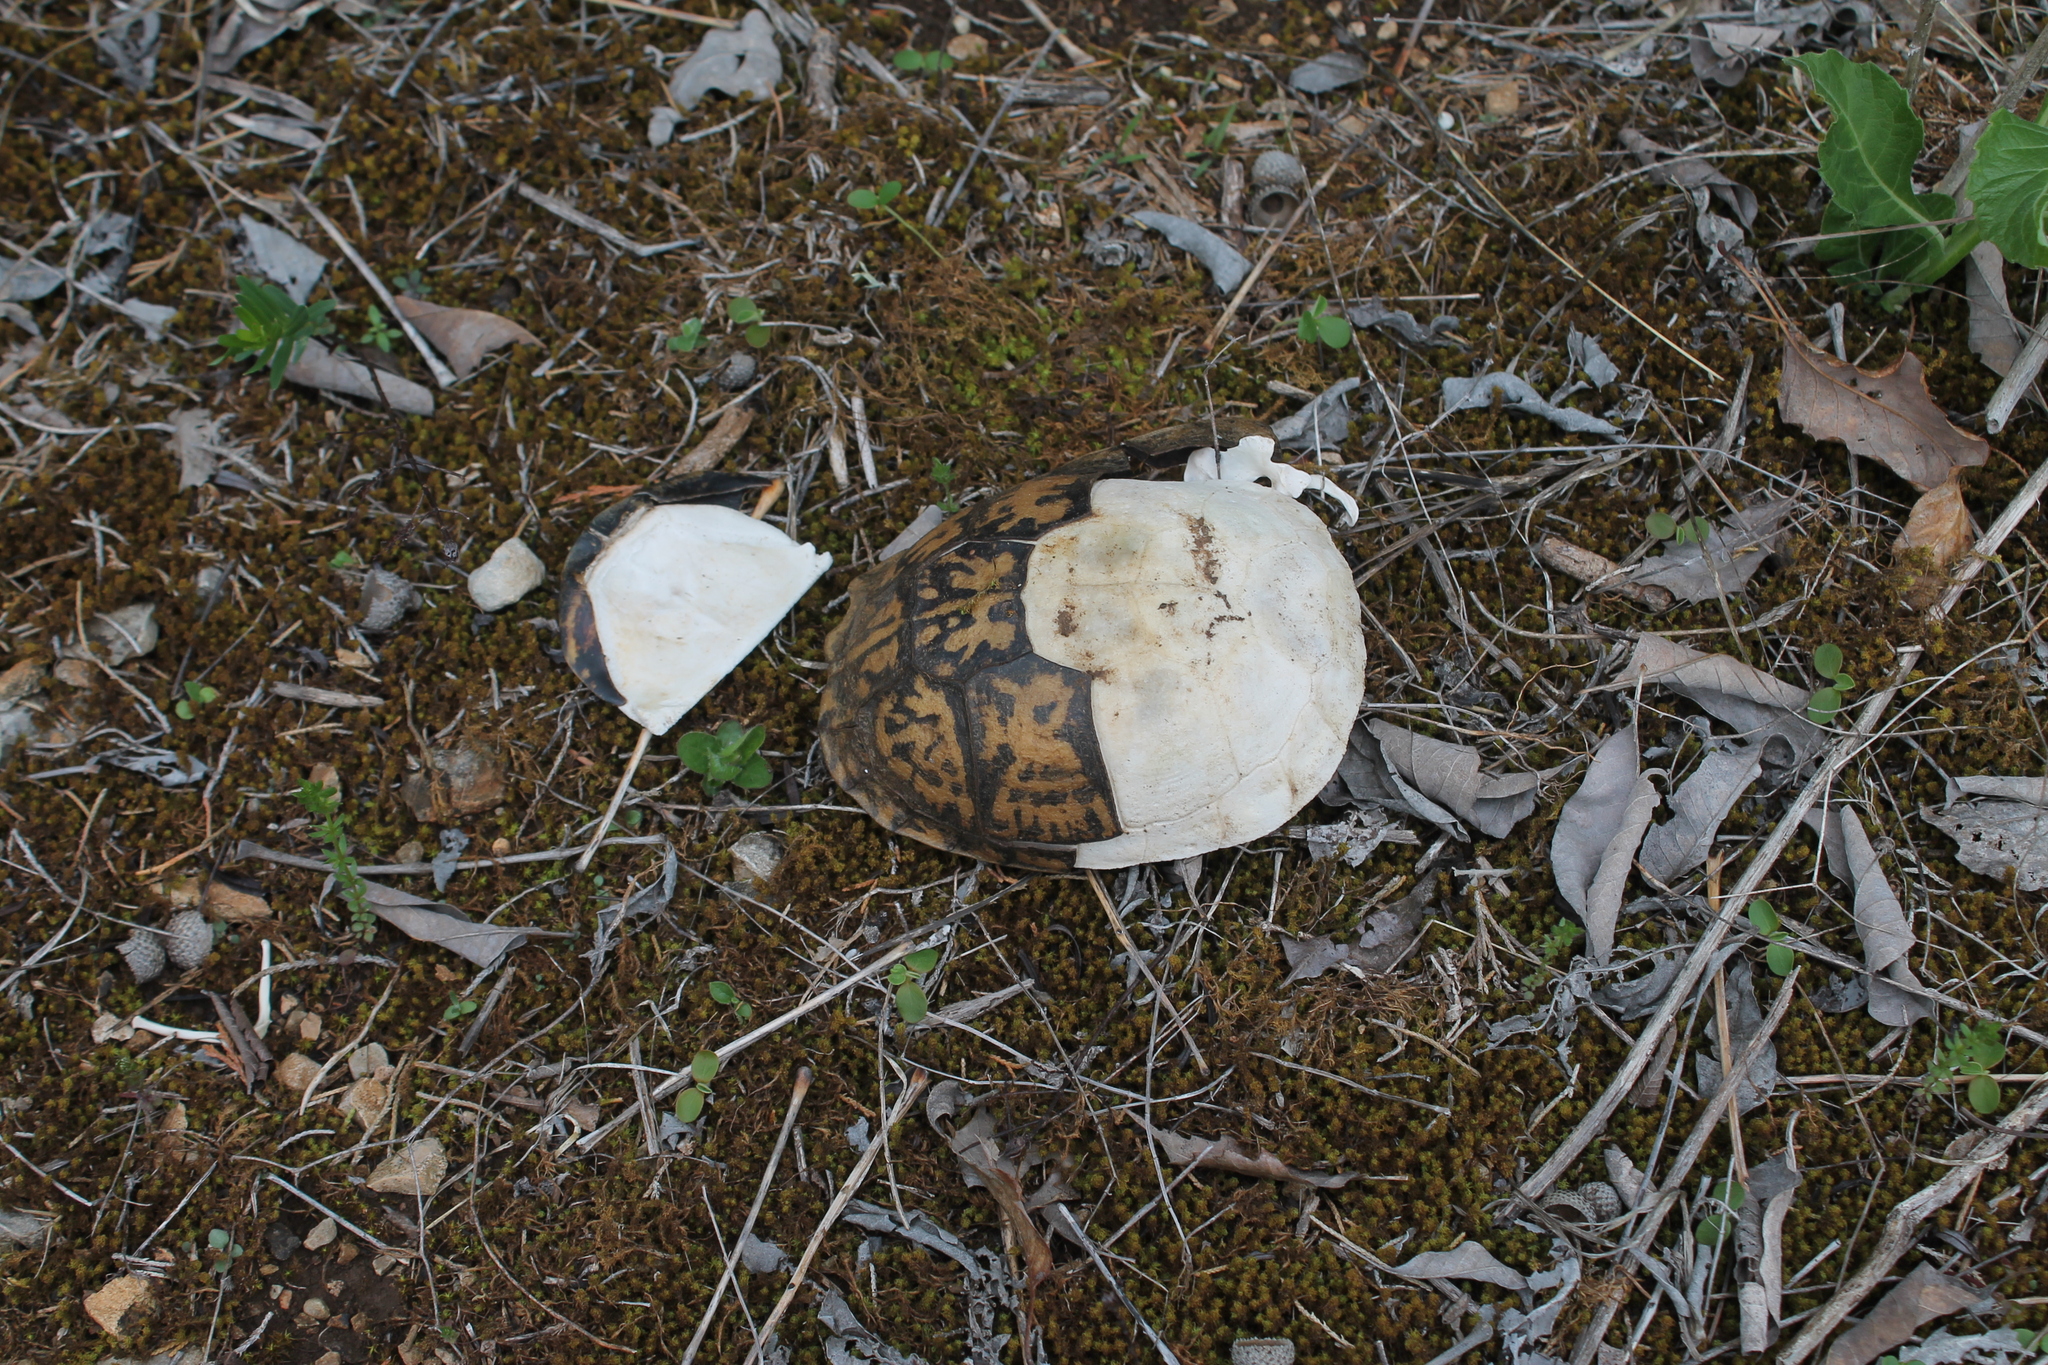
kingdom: Animalia
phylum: Chordata
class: Testudines
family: Emydidae
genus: Terrapene
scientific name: Terrapene carolina
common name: Common box turtle
